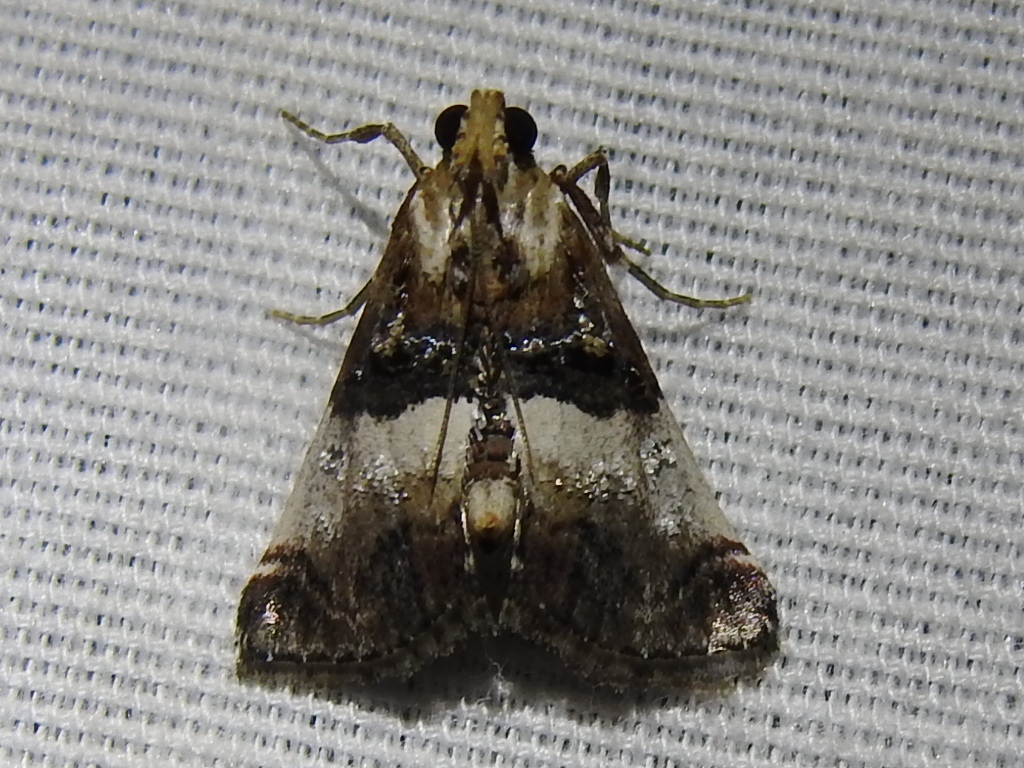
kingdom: Animalia
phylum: Arthropoda
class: Insecta
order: Lepidoptera
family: Pyralidae
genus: Toripalpus
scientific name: Toripalpus breviornatalis
